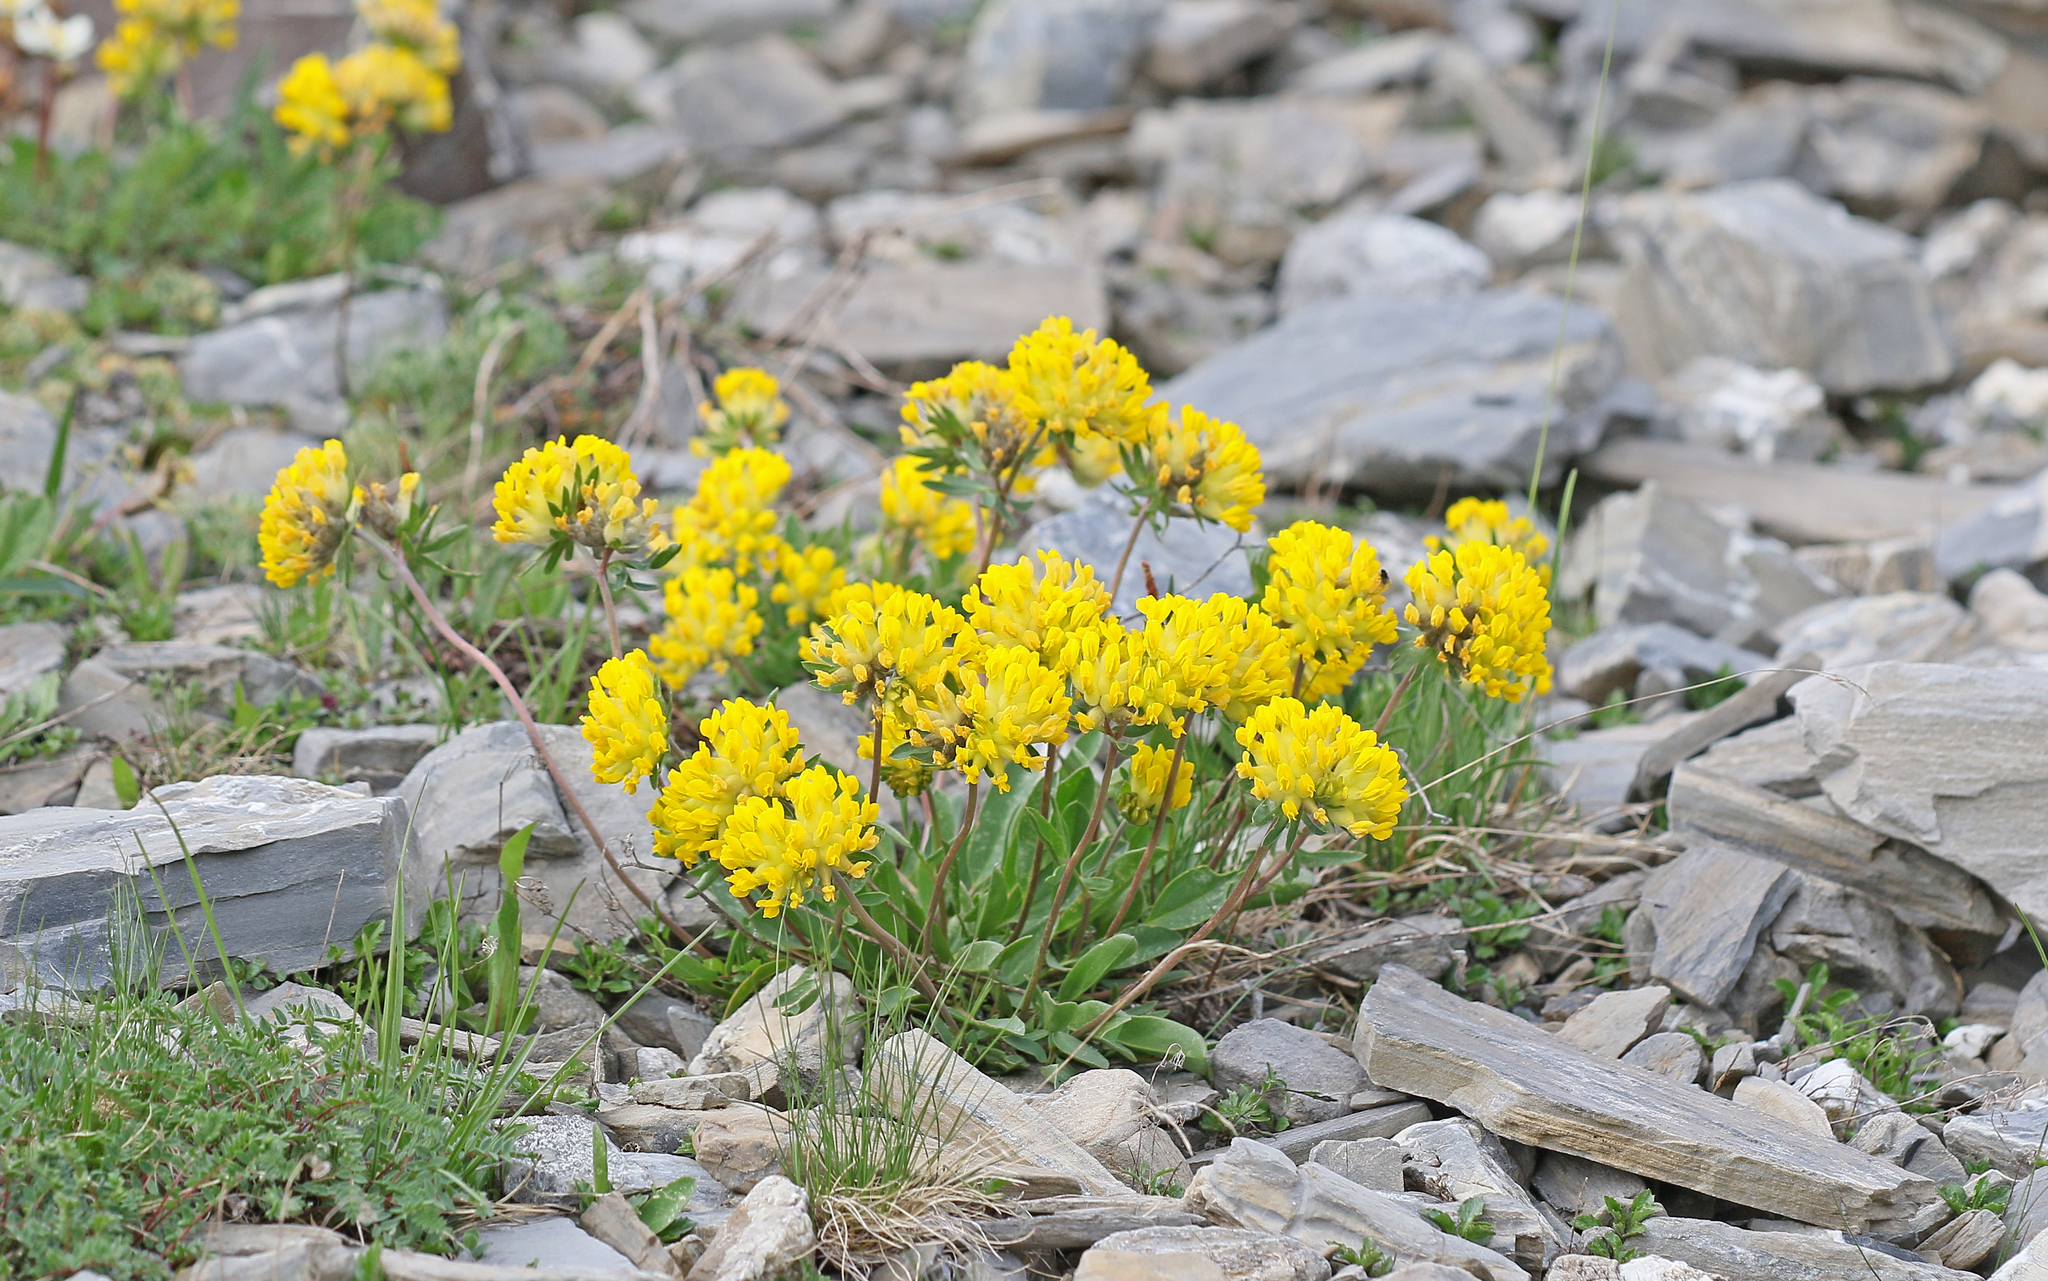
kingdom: Plantae
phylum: Tracheophyta
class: Magnoliopsida
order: Fabales
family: Fabaceae
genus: Anthyllis
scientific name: Anthyllis vulneraria
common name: Kidney vetch
